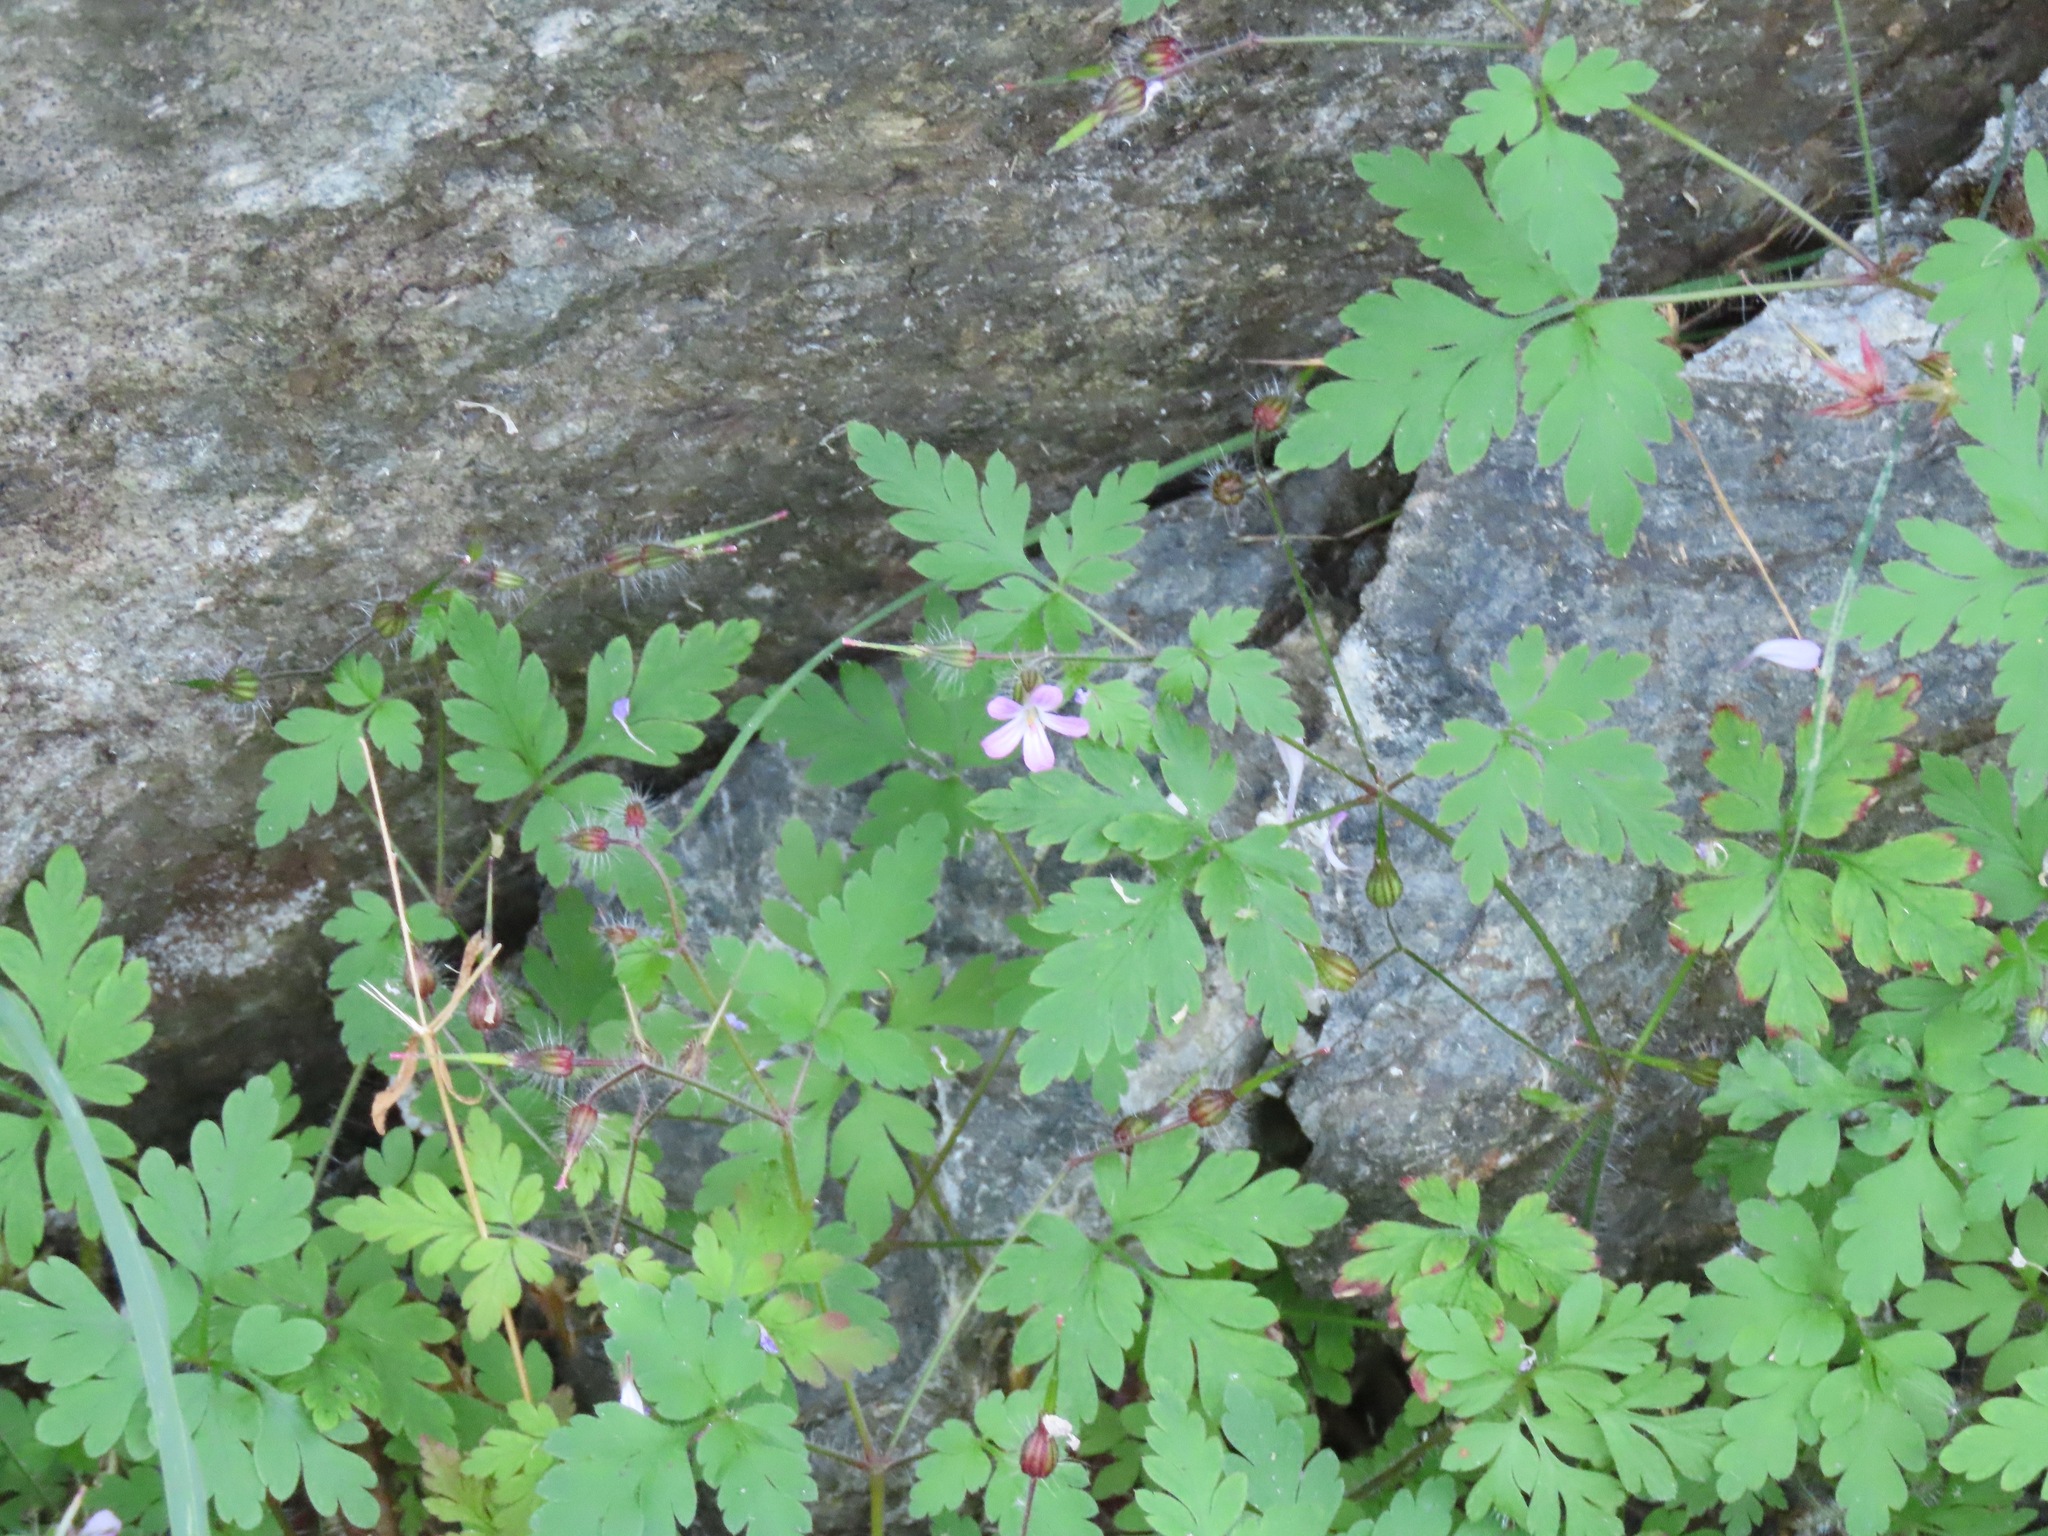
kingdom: Plantae
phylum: Tracheophyta
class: Magnoliopsida
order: Geraniales
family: Geraniaceae
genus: Geranium
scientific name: Geranium robertianum
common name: Herb-robert
